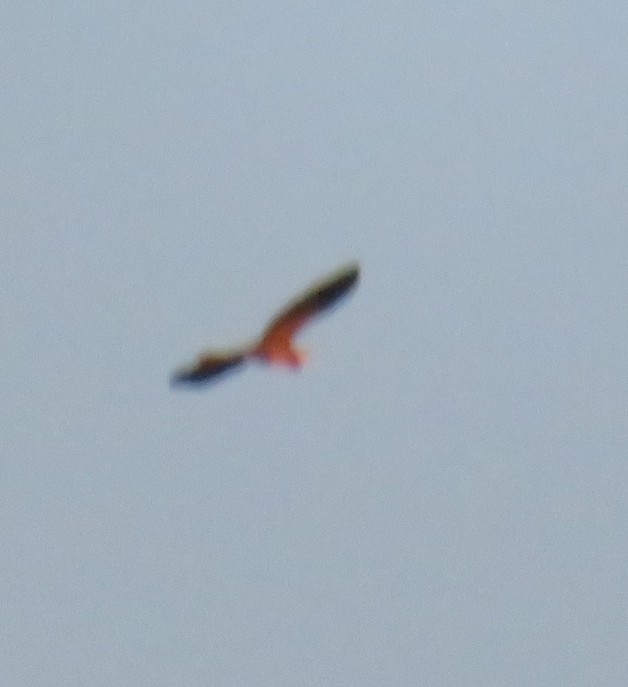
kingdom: Animalia
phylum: Chordata
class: Aves
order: Pelecaniformes
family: Ardeidae
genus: Ardea
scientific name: Ardea herodias
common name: Great blue heron
